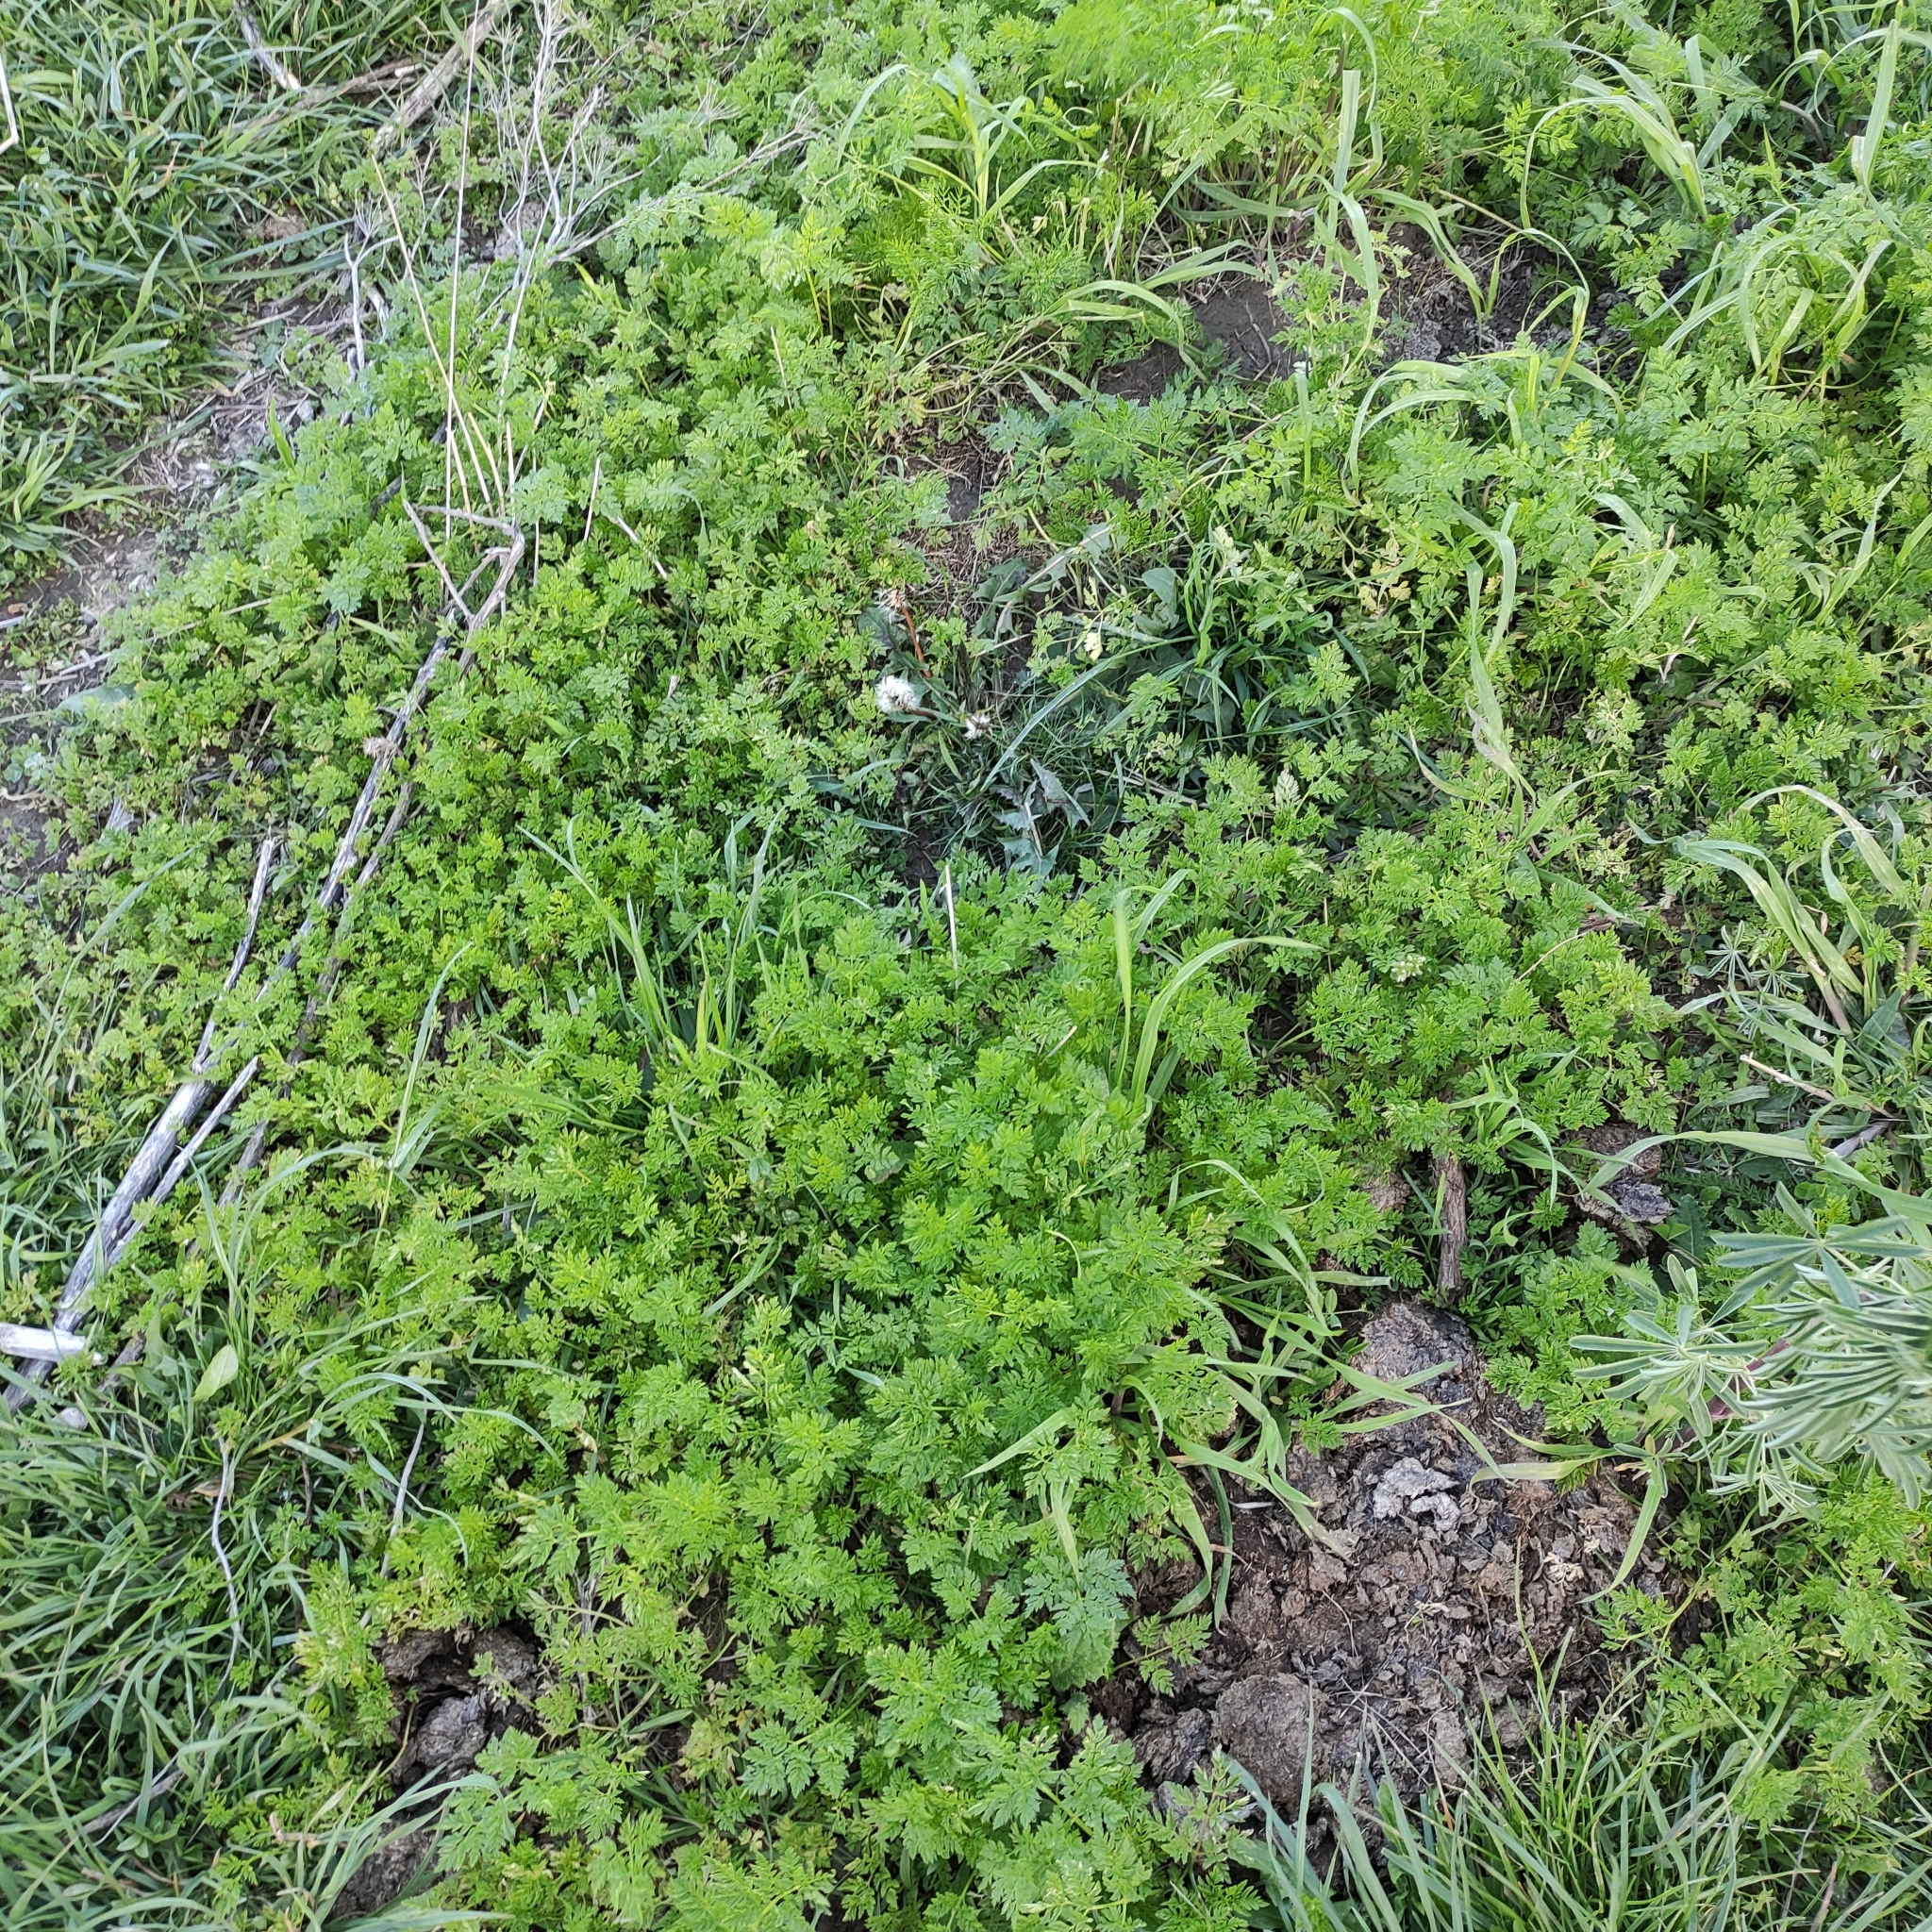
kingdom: Plantae
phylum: Tracheophyta
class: Magnoliopsida
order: Apiales
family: Apiaceae
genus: Conium
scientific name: Conium maculatum
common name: Hemlock
